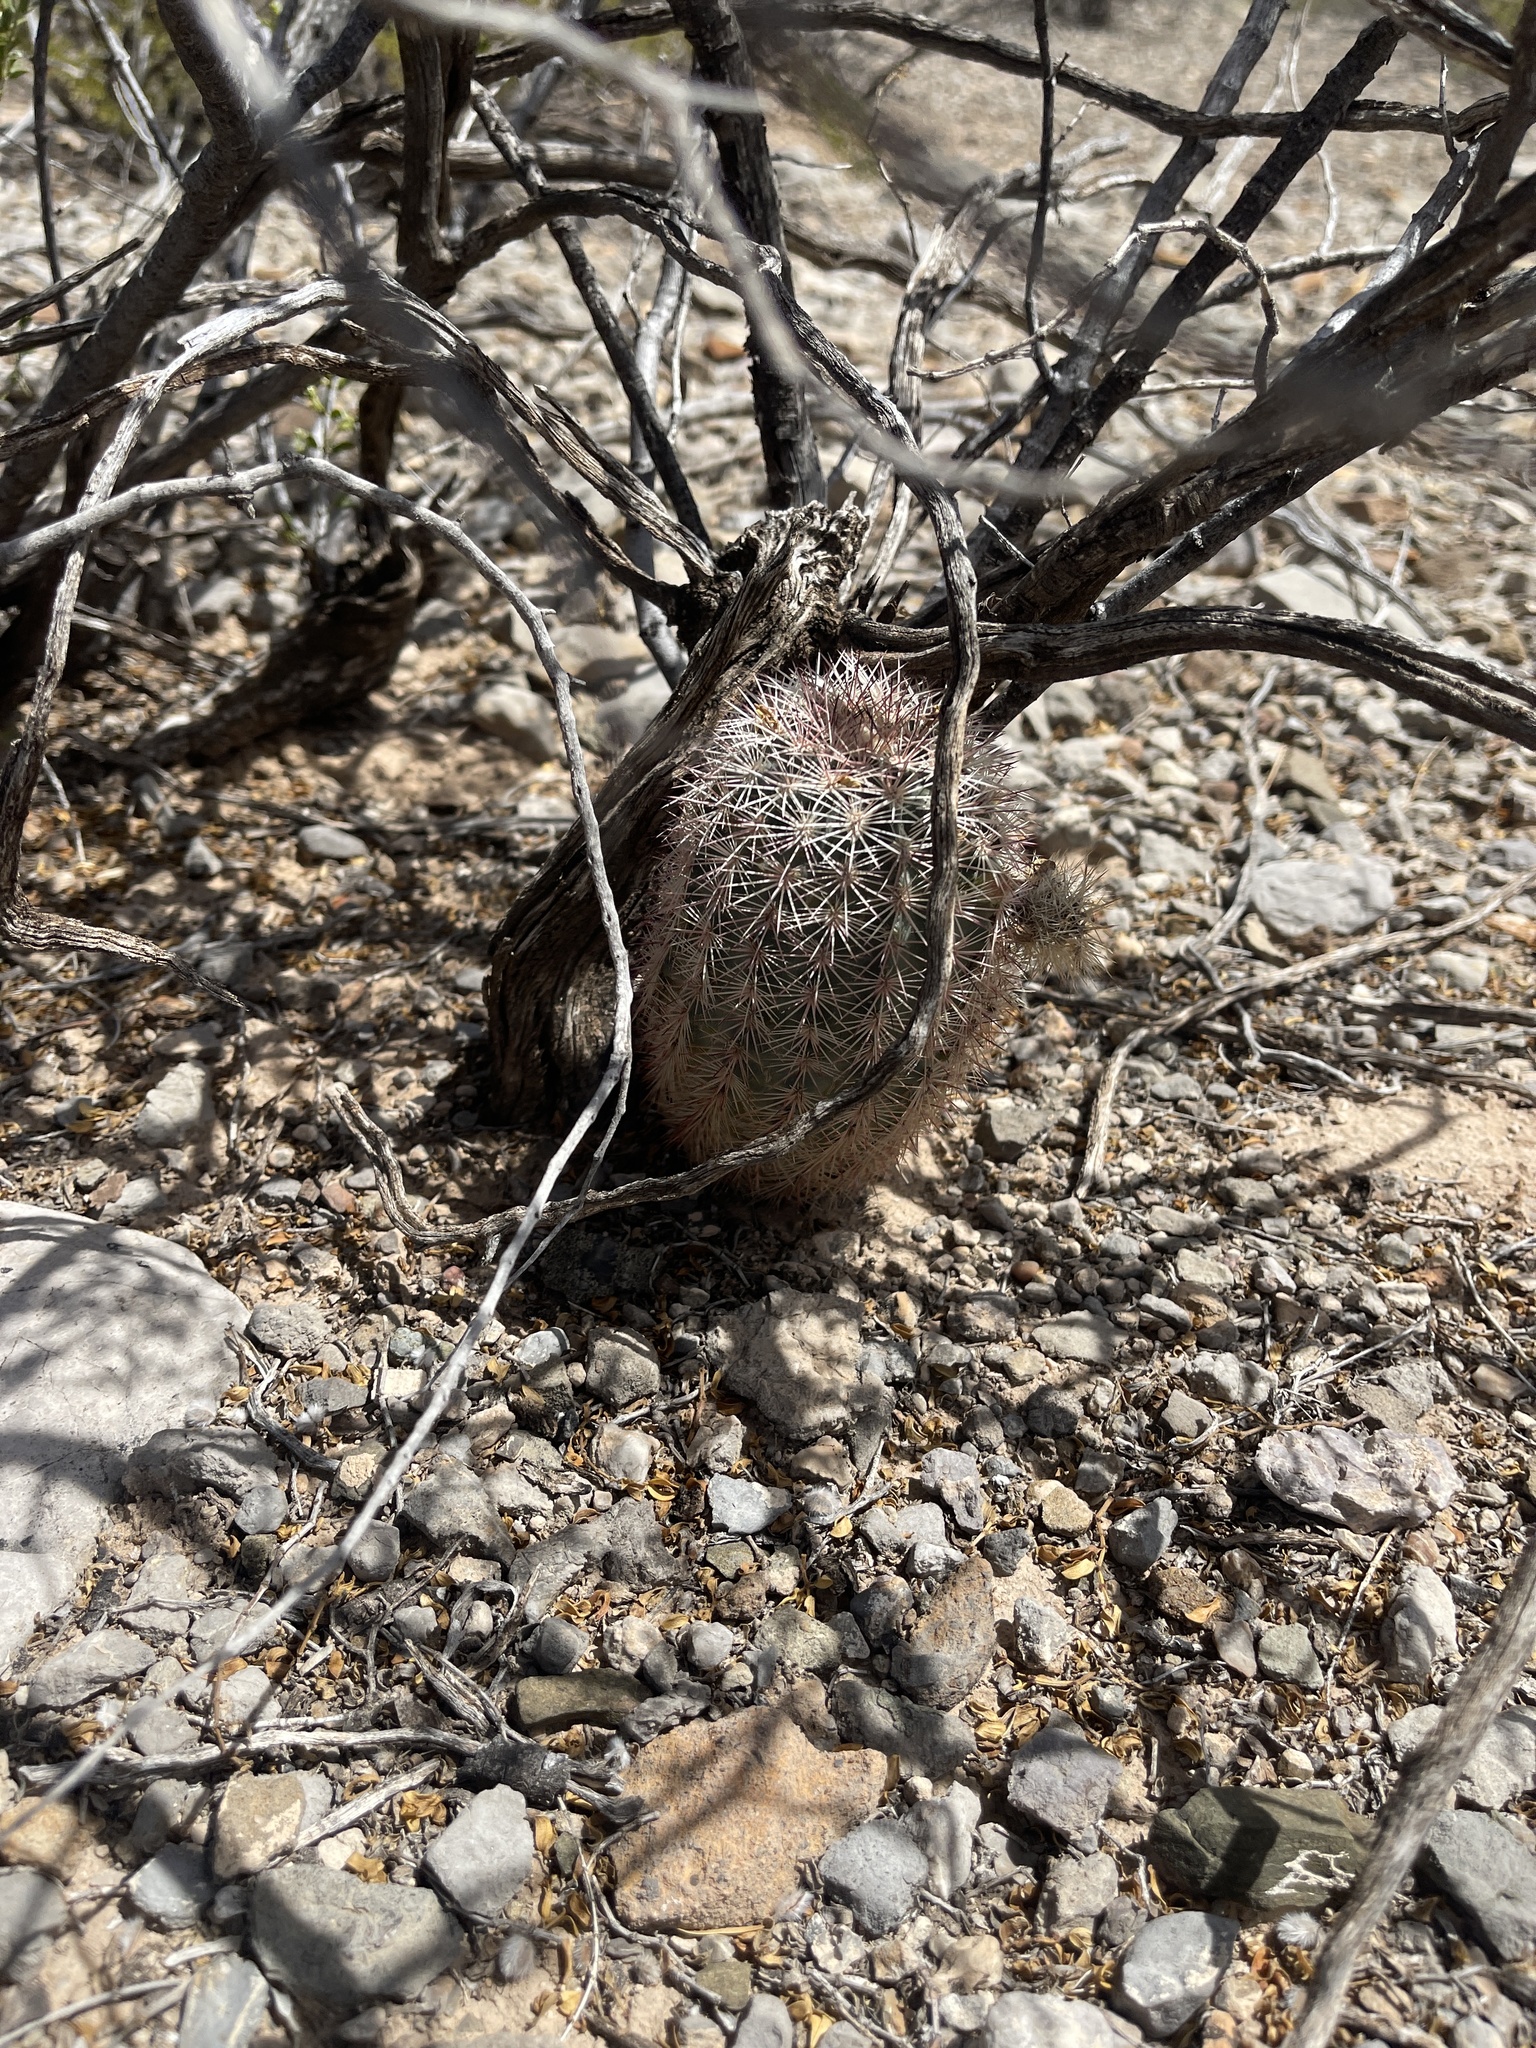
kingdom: Plantae
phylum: Tracheophyta
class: Magnoliopsida
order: Caryophyllales
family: Cactaceae
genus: Echinocereus
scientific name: Echinocereus dasyacanthus
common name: Spiny hedgehog cactus
